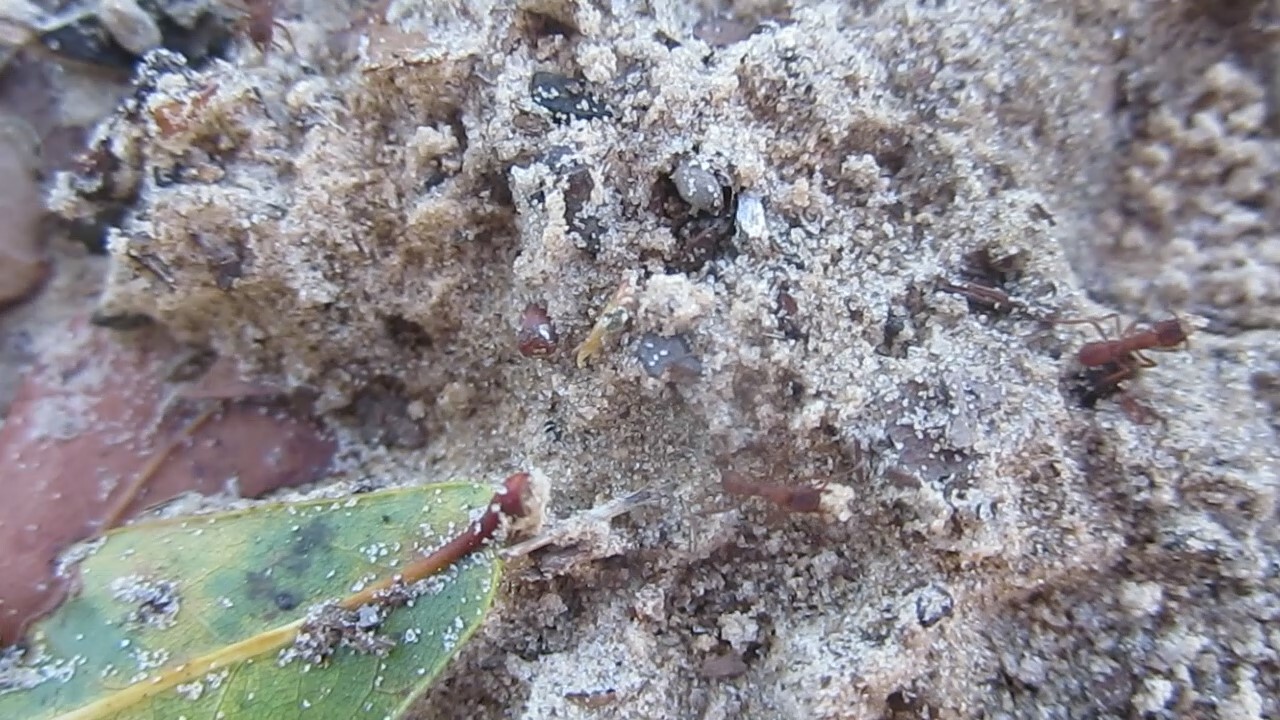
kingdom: Animalia
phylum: Arthropoda
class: Insecta
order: Hymenoptera
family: Formicidae
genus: Trachymyrmex
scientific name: Trachymyrmex septentrionalis
